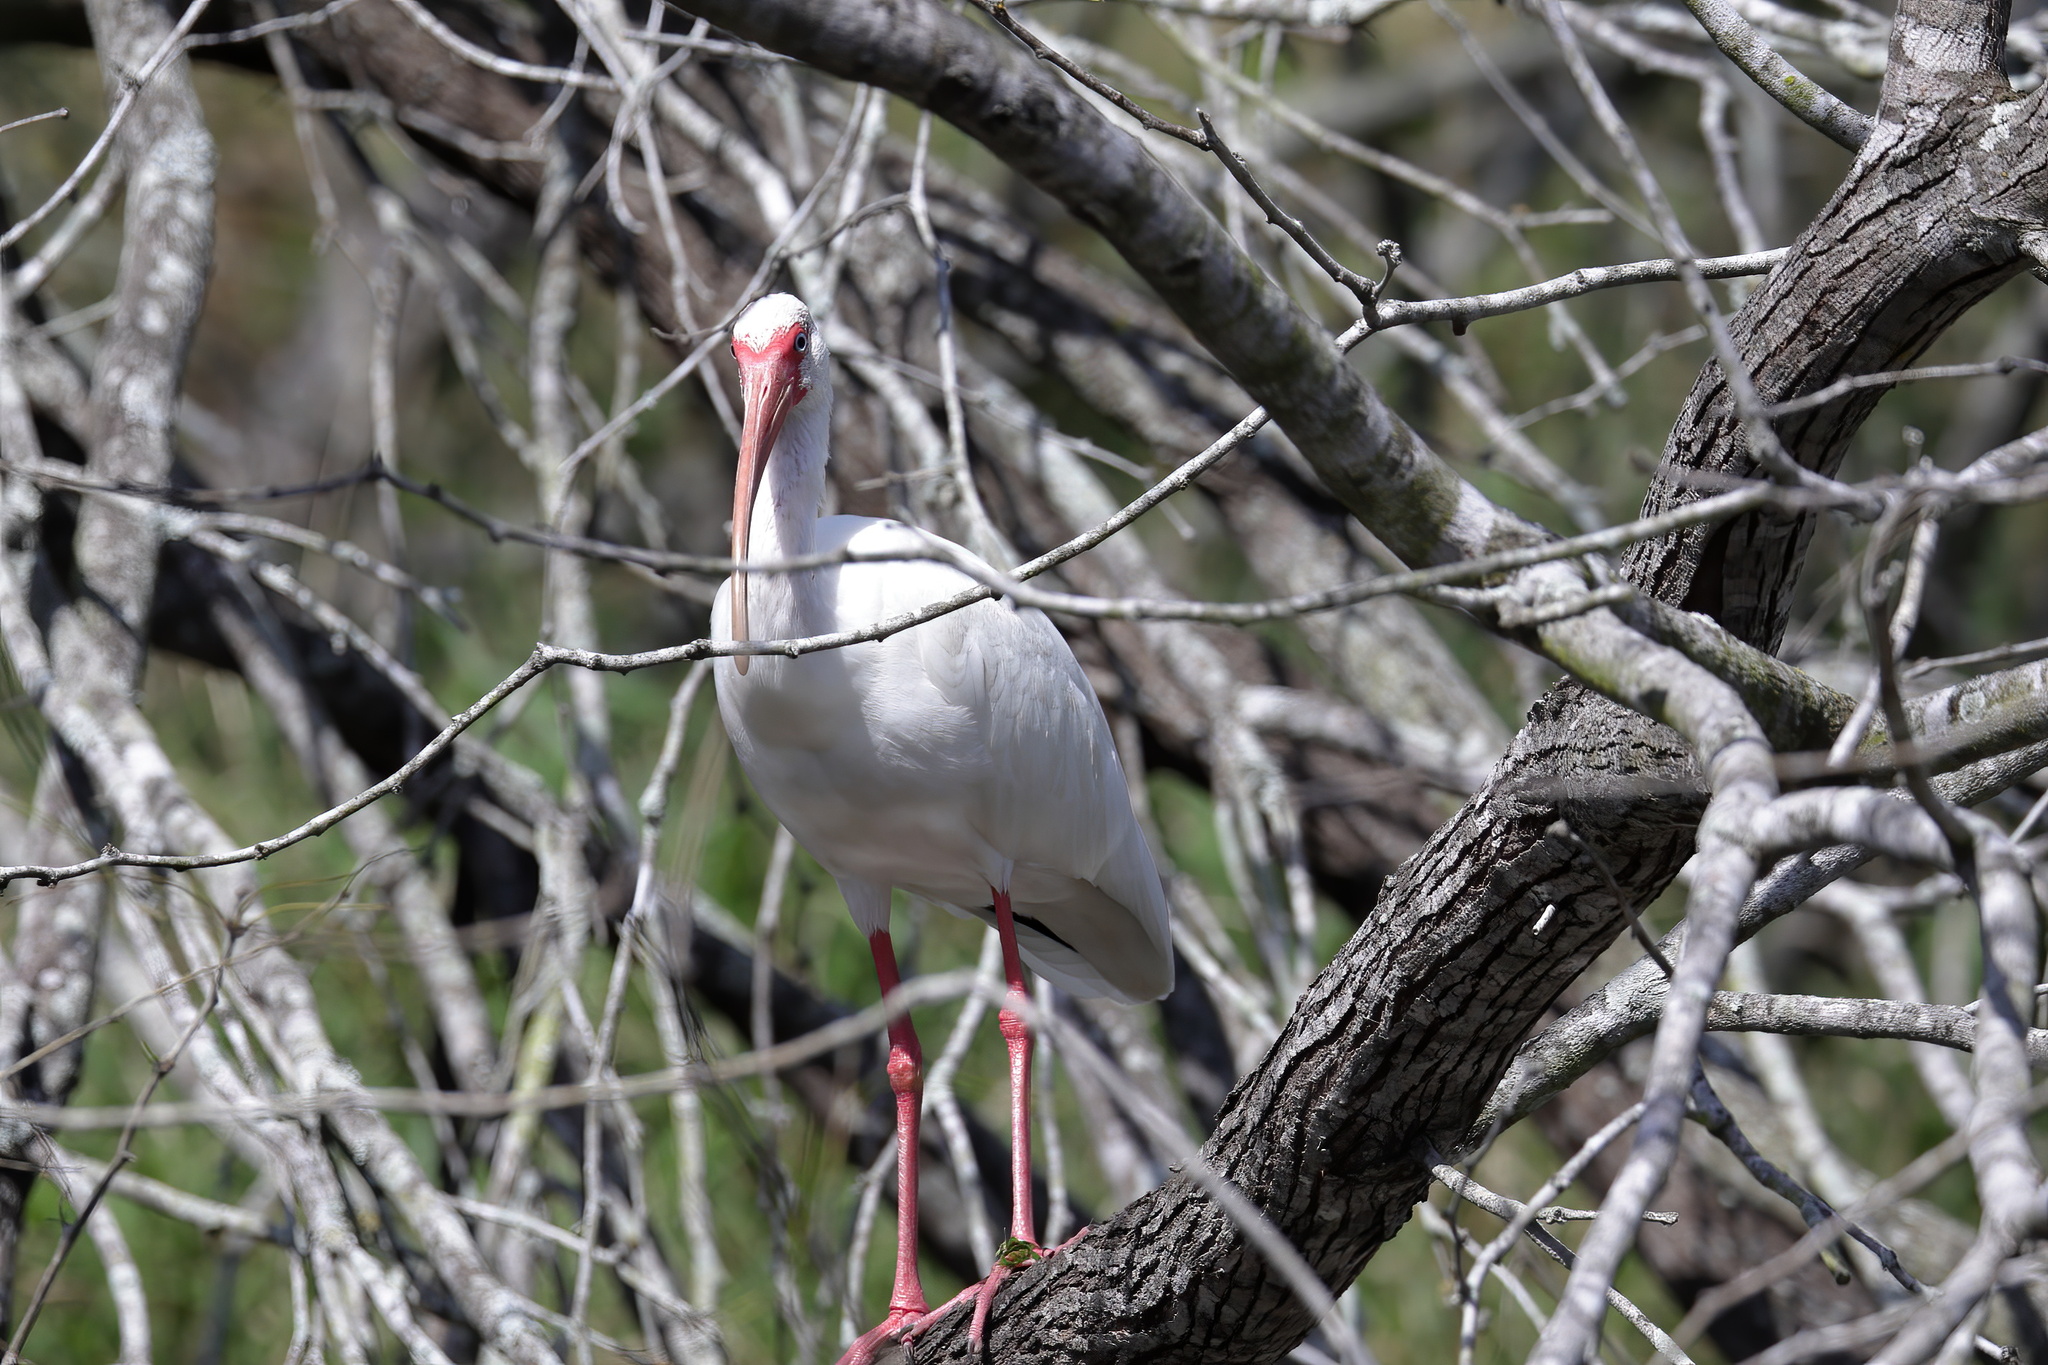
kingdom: Animalia
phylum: Chordata
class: Aves
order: Pelecaniformes
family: Threskiornithidae
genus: Eudocimus
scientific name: Eudocimus albus
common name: White ibis
